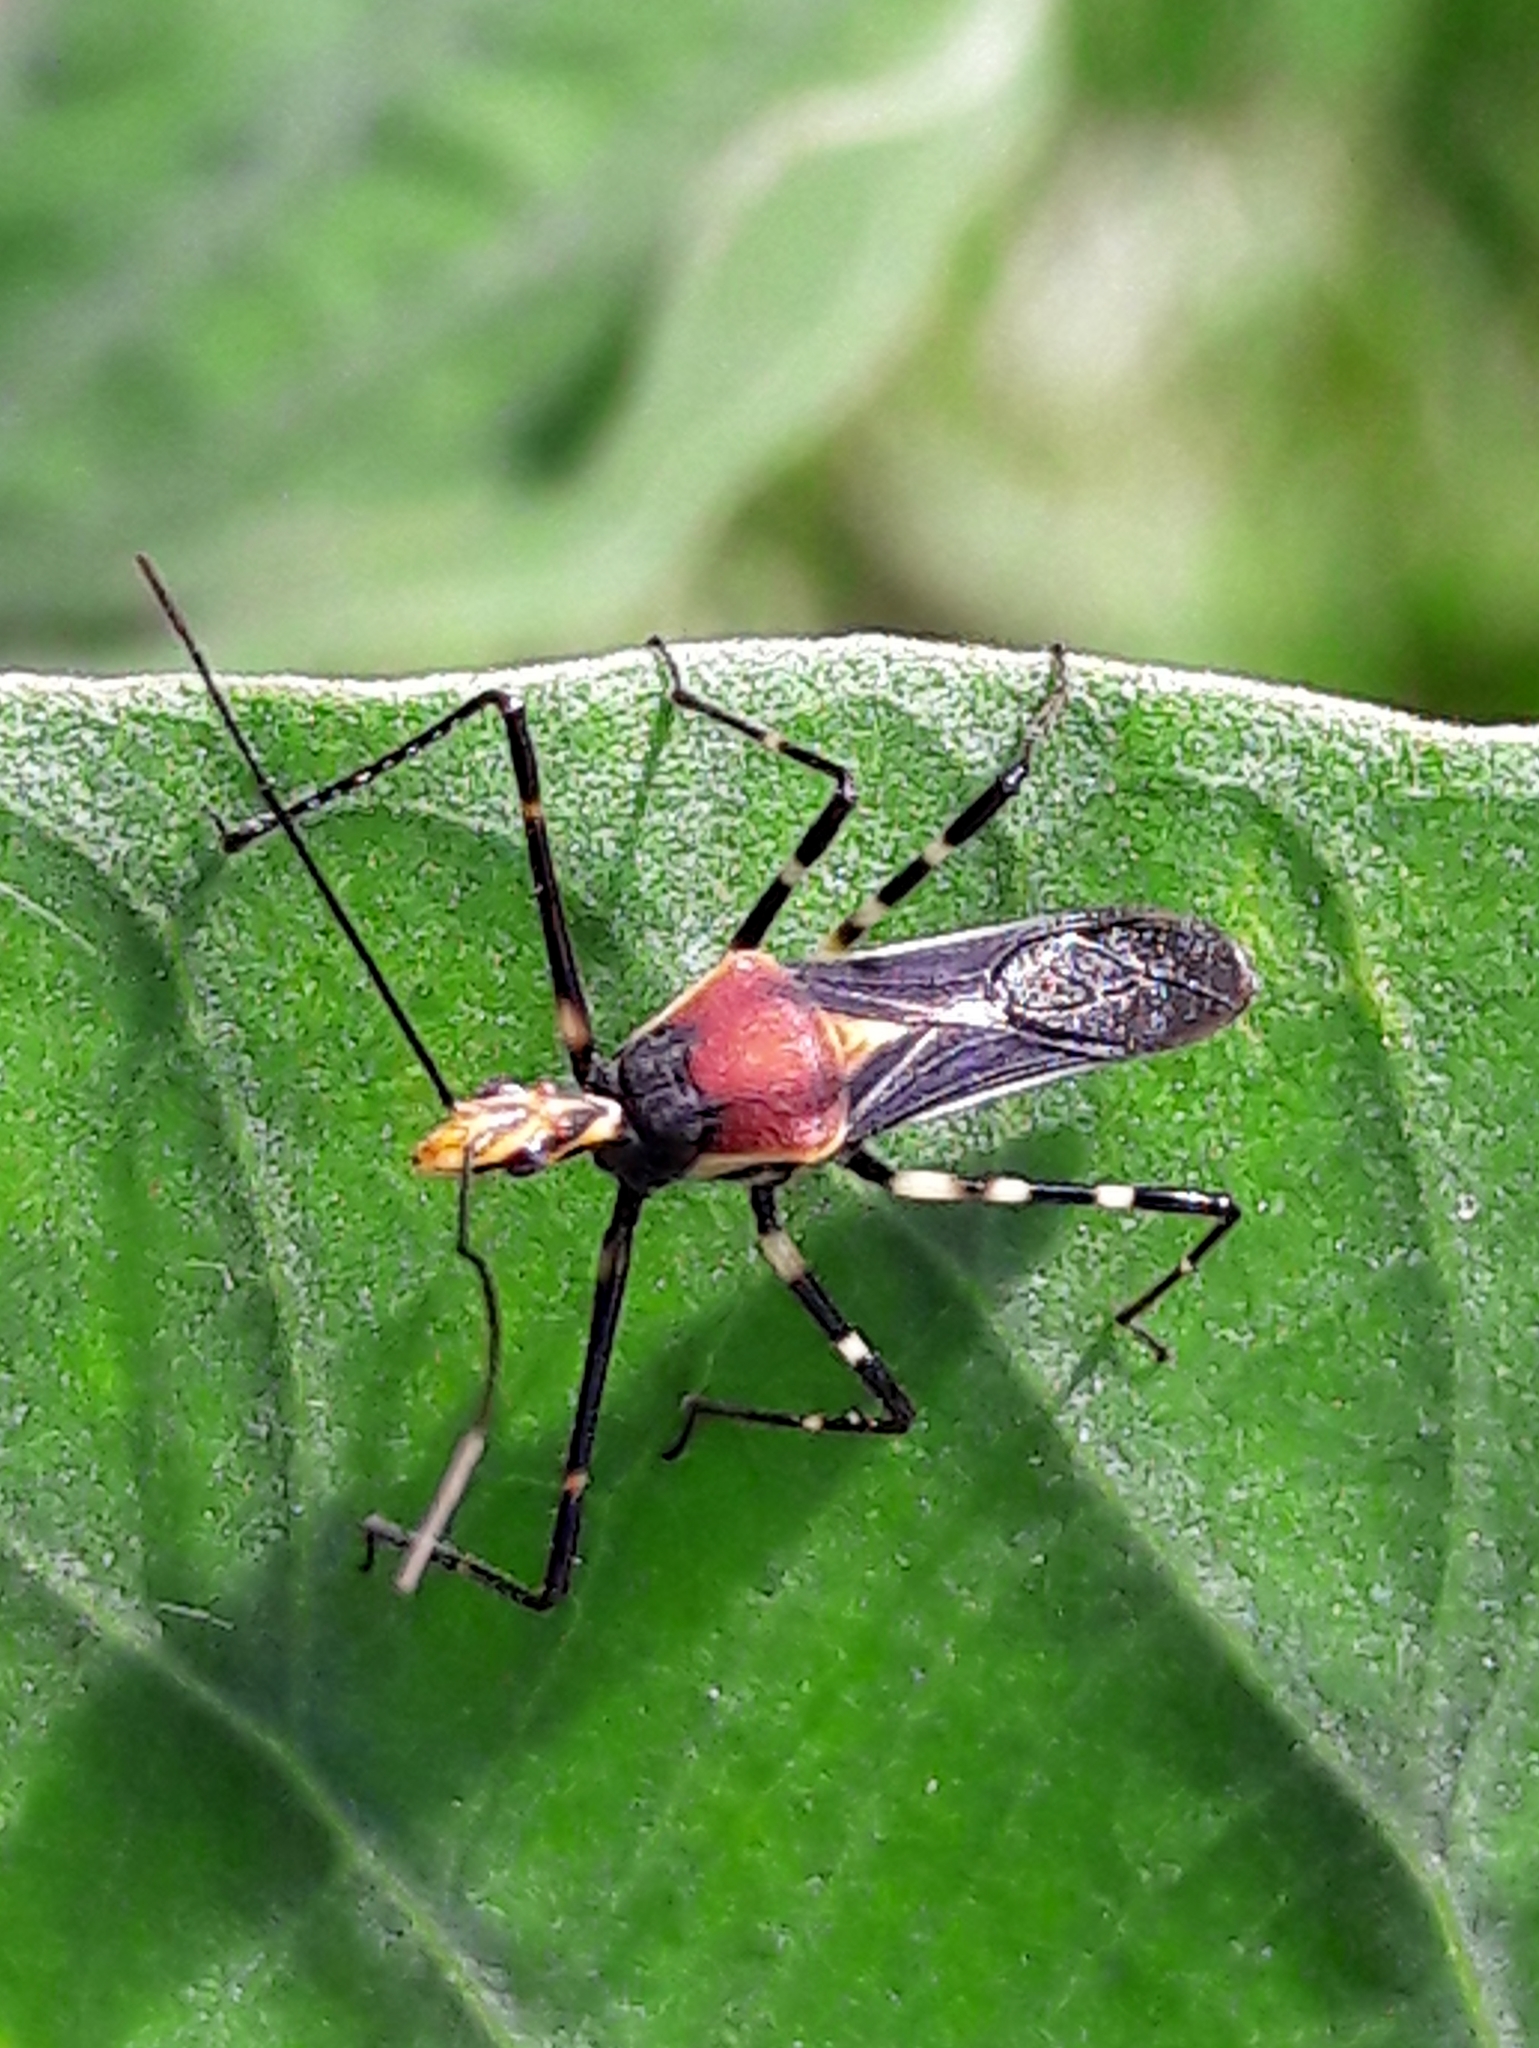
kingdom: Animalia
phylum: Arthropoda
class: Insecta
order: Hemiptera
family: Reduviidae
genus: Zelus
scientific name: Zelus laticornis
